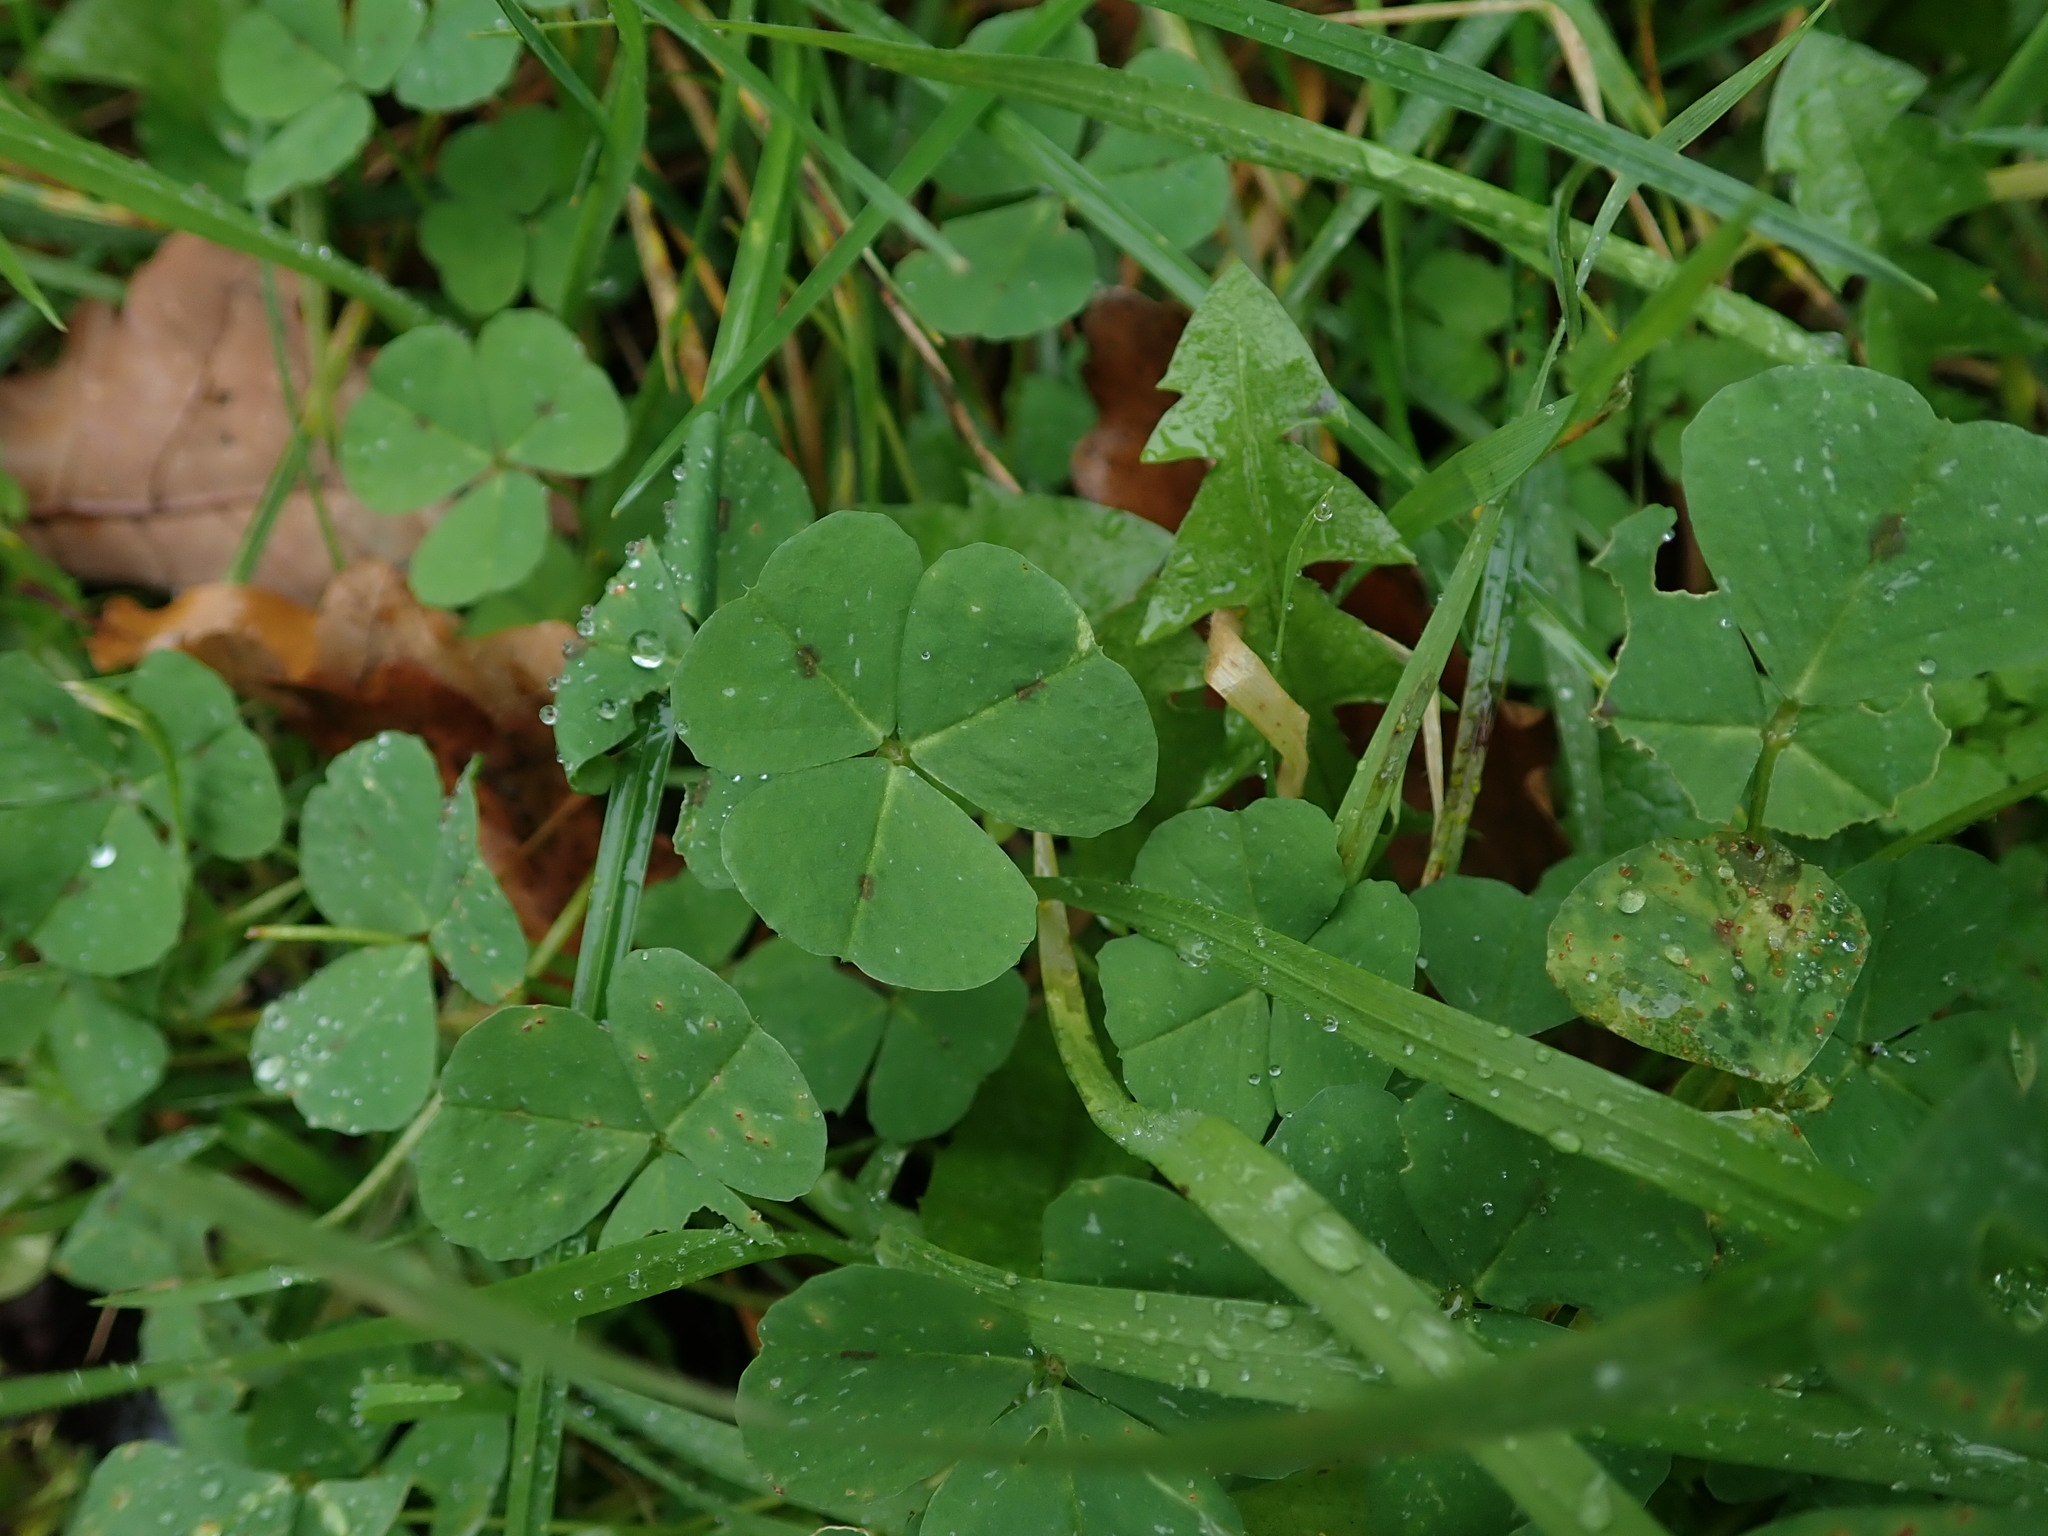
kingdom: Plantae
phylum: Tracheophyta
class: Magnoliopsida
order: Fabales
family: Fabaceae
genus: Medicago
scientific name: Medicago arabica
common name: Spotted medick
